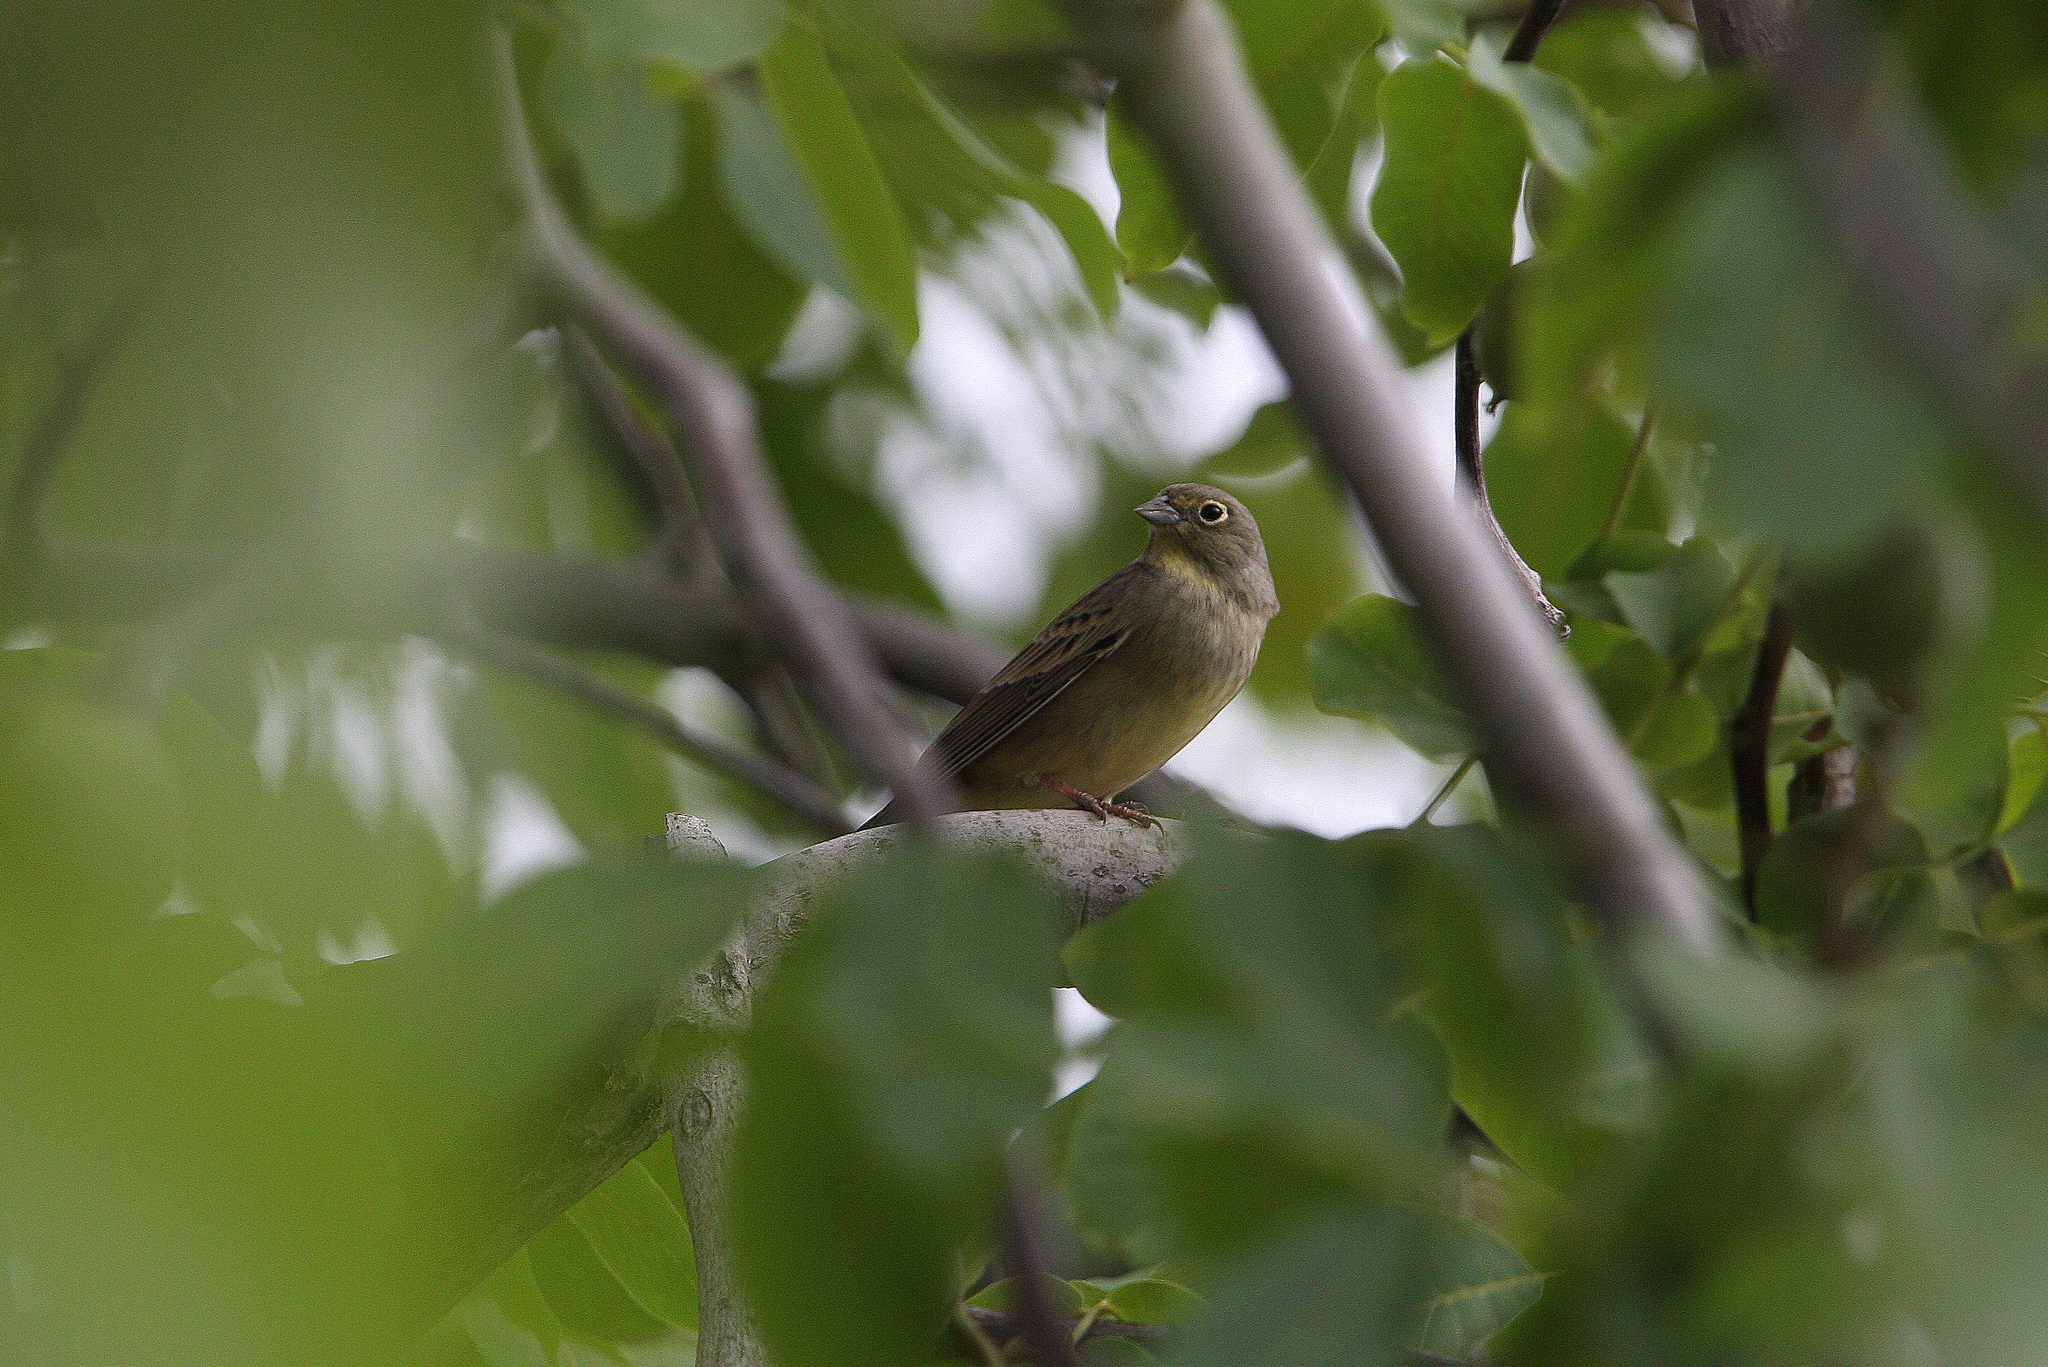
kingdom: Animalia
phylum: Chordata
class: Aves
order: Passeriformes
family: Emberizidae
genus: Emberiza
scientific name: Emberiza cineracea
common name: Cinereous bunting
